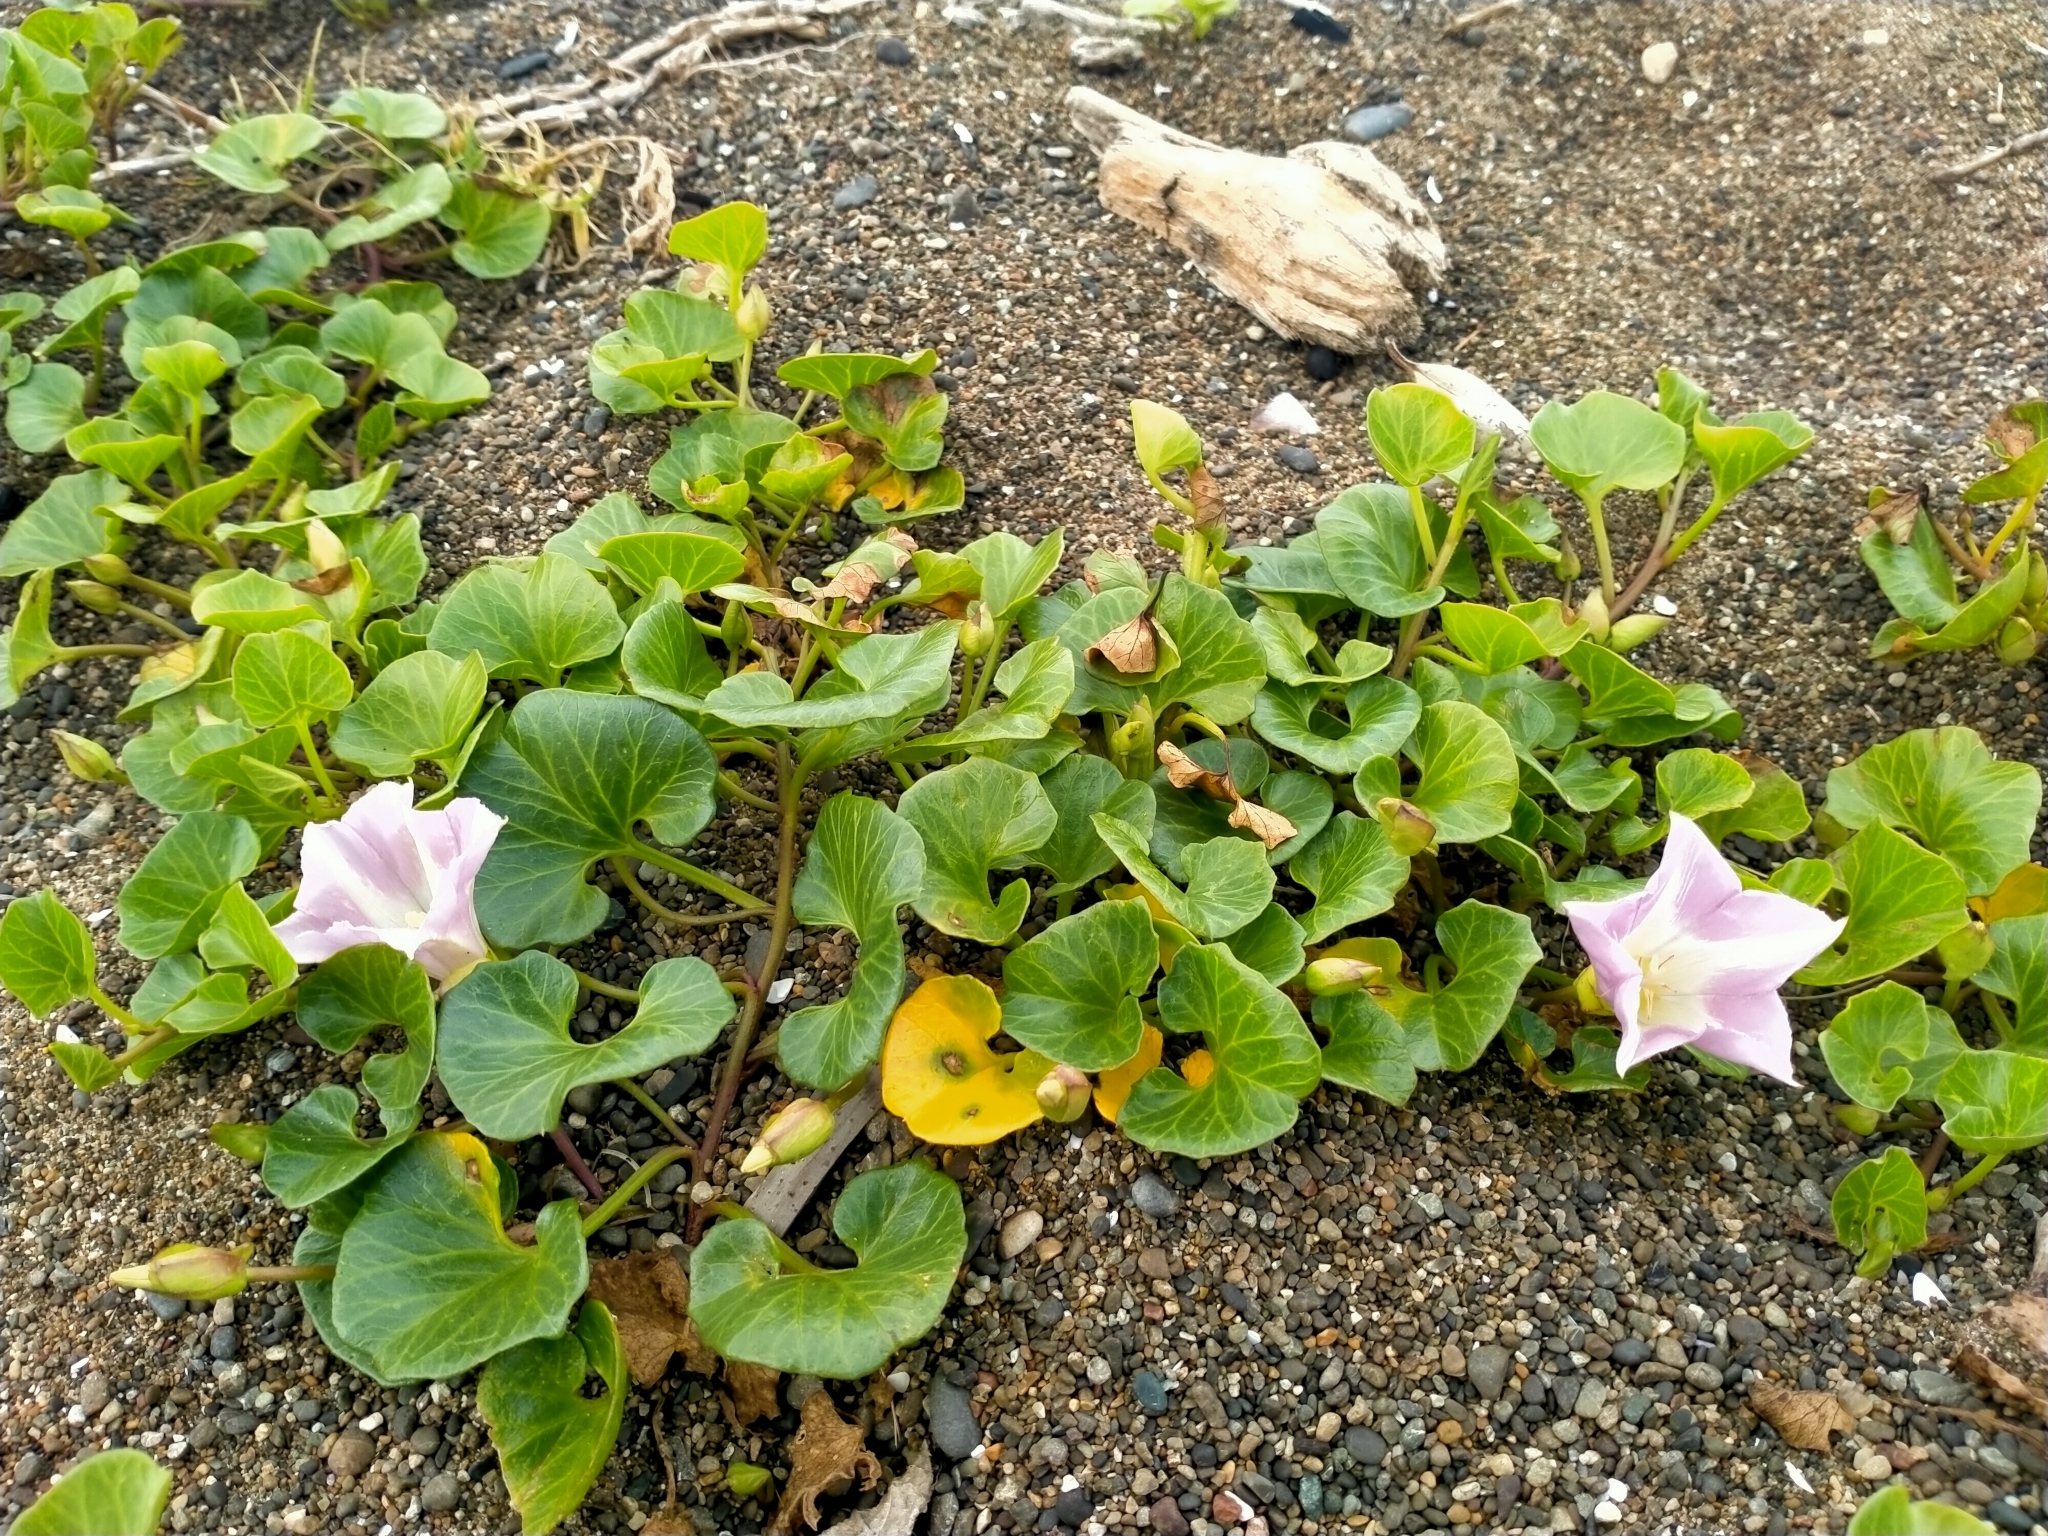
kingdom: Plantae
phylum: Tracheophyta
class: Magnoliopsida
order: Solanales
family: Convolvulaceae
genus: Calystegia
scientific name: Calystegia soldanella
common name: Sea bindweed
